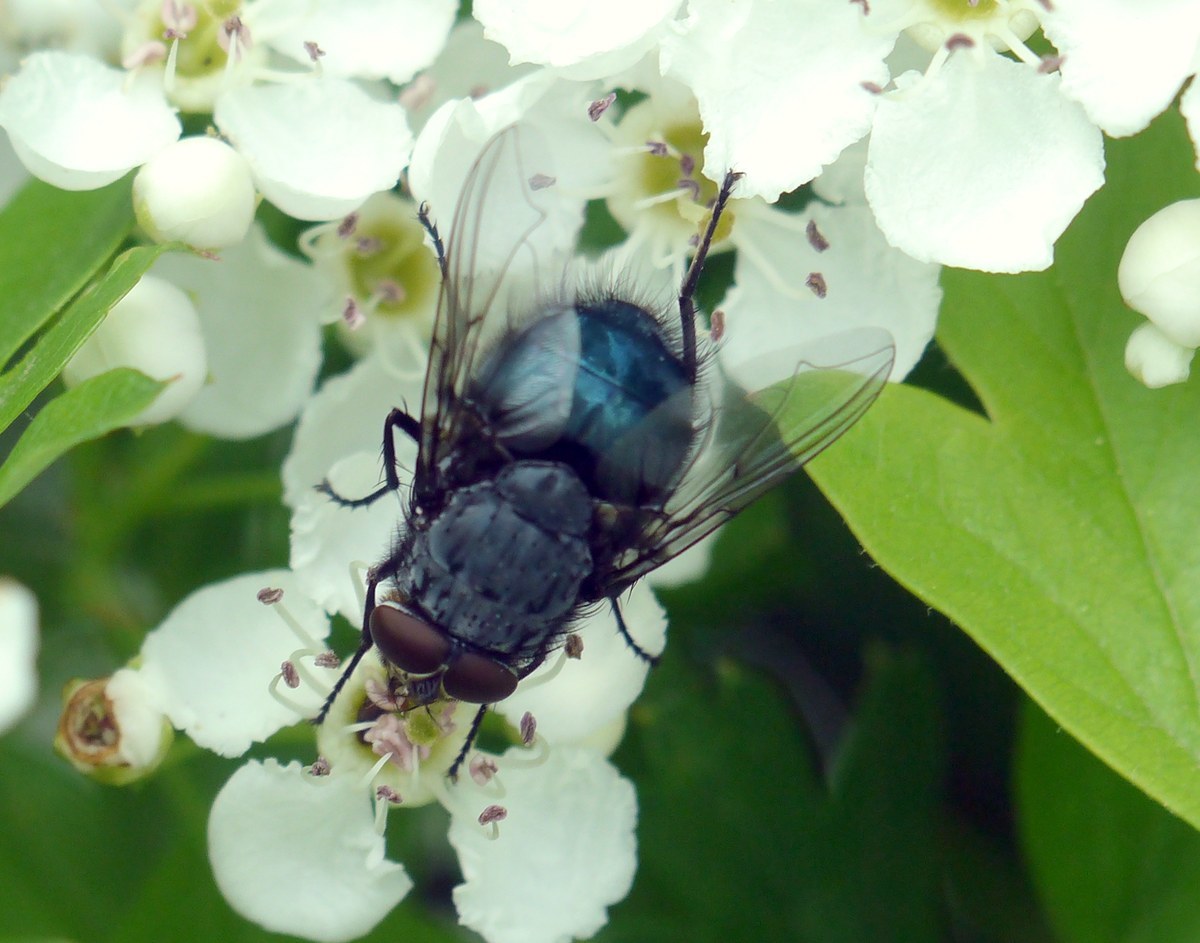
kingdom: Animalia
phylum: Arthropoda
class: Insecta
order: Diptera
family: Calliphoridae
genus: Calliphora
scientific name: Calliphora
